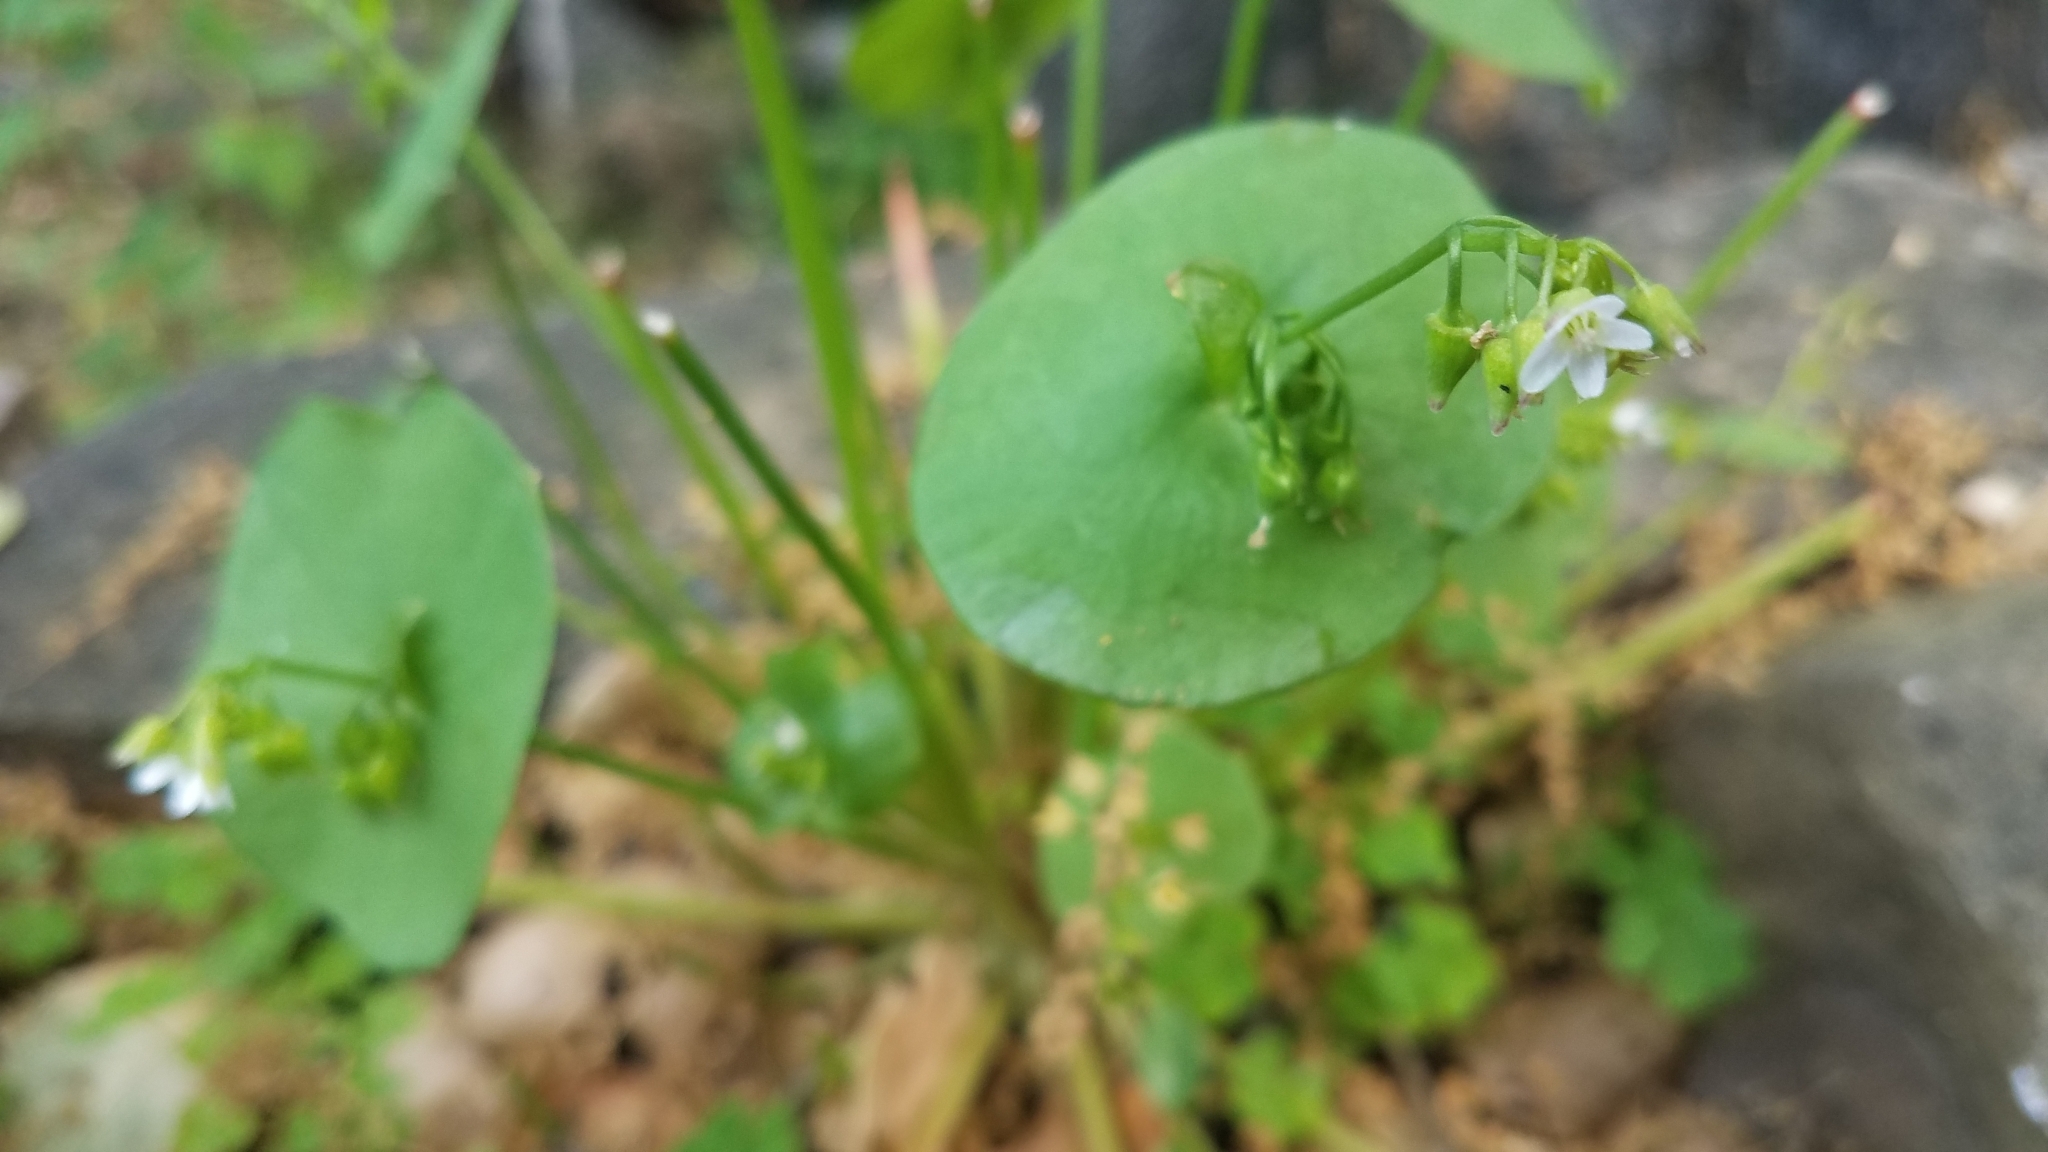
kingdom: Plantae
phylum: Tracheophyta
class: Magnoliopsida
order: Caryophyllales
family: Montiaceae
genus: Claytonia
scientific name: Claytonia perfoliata
